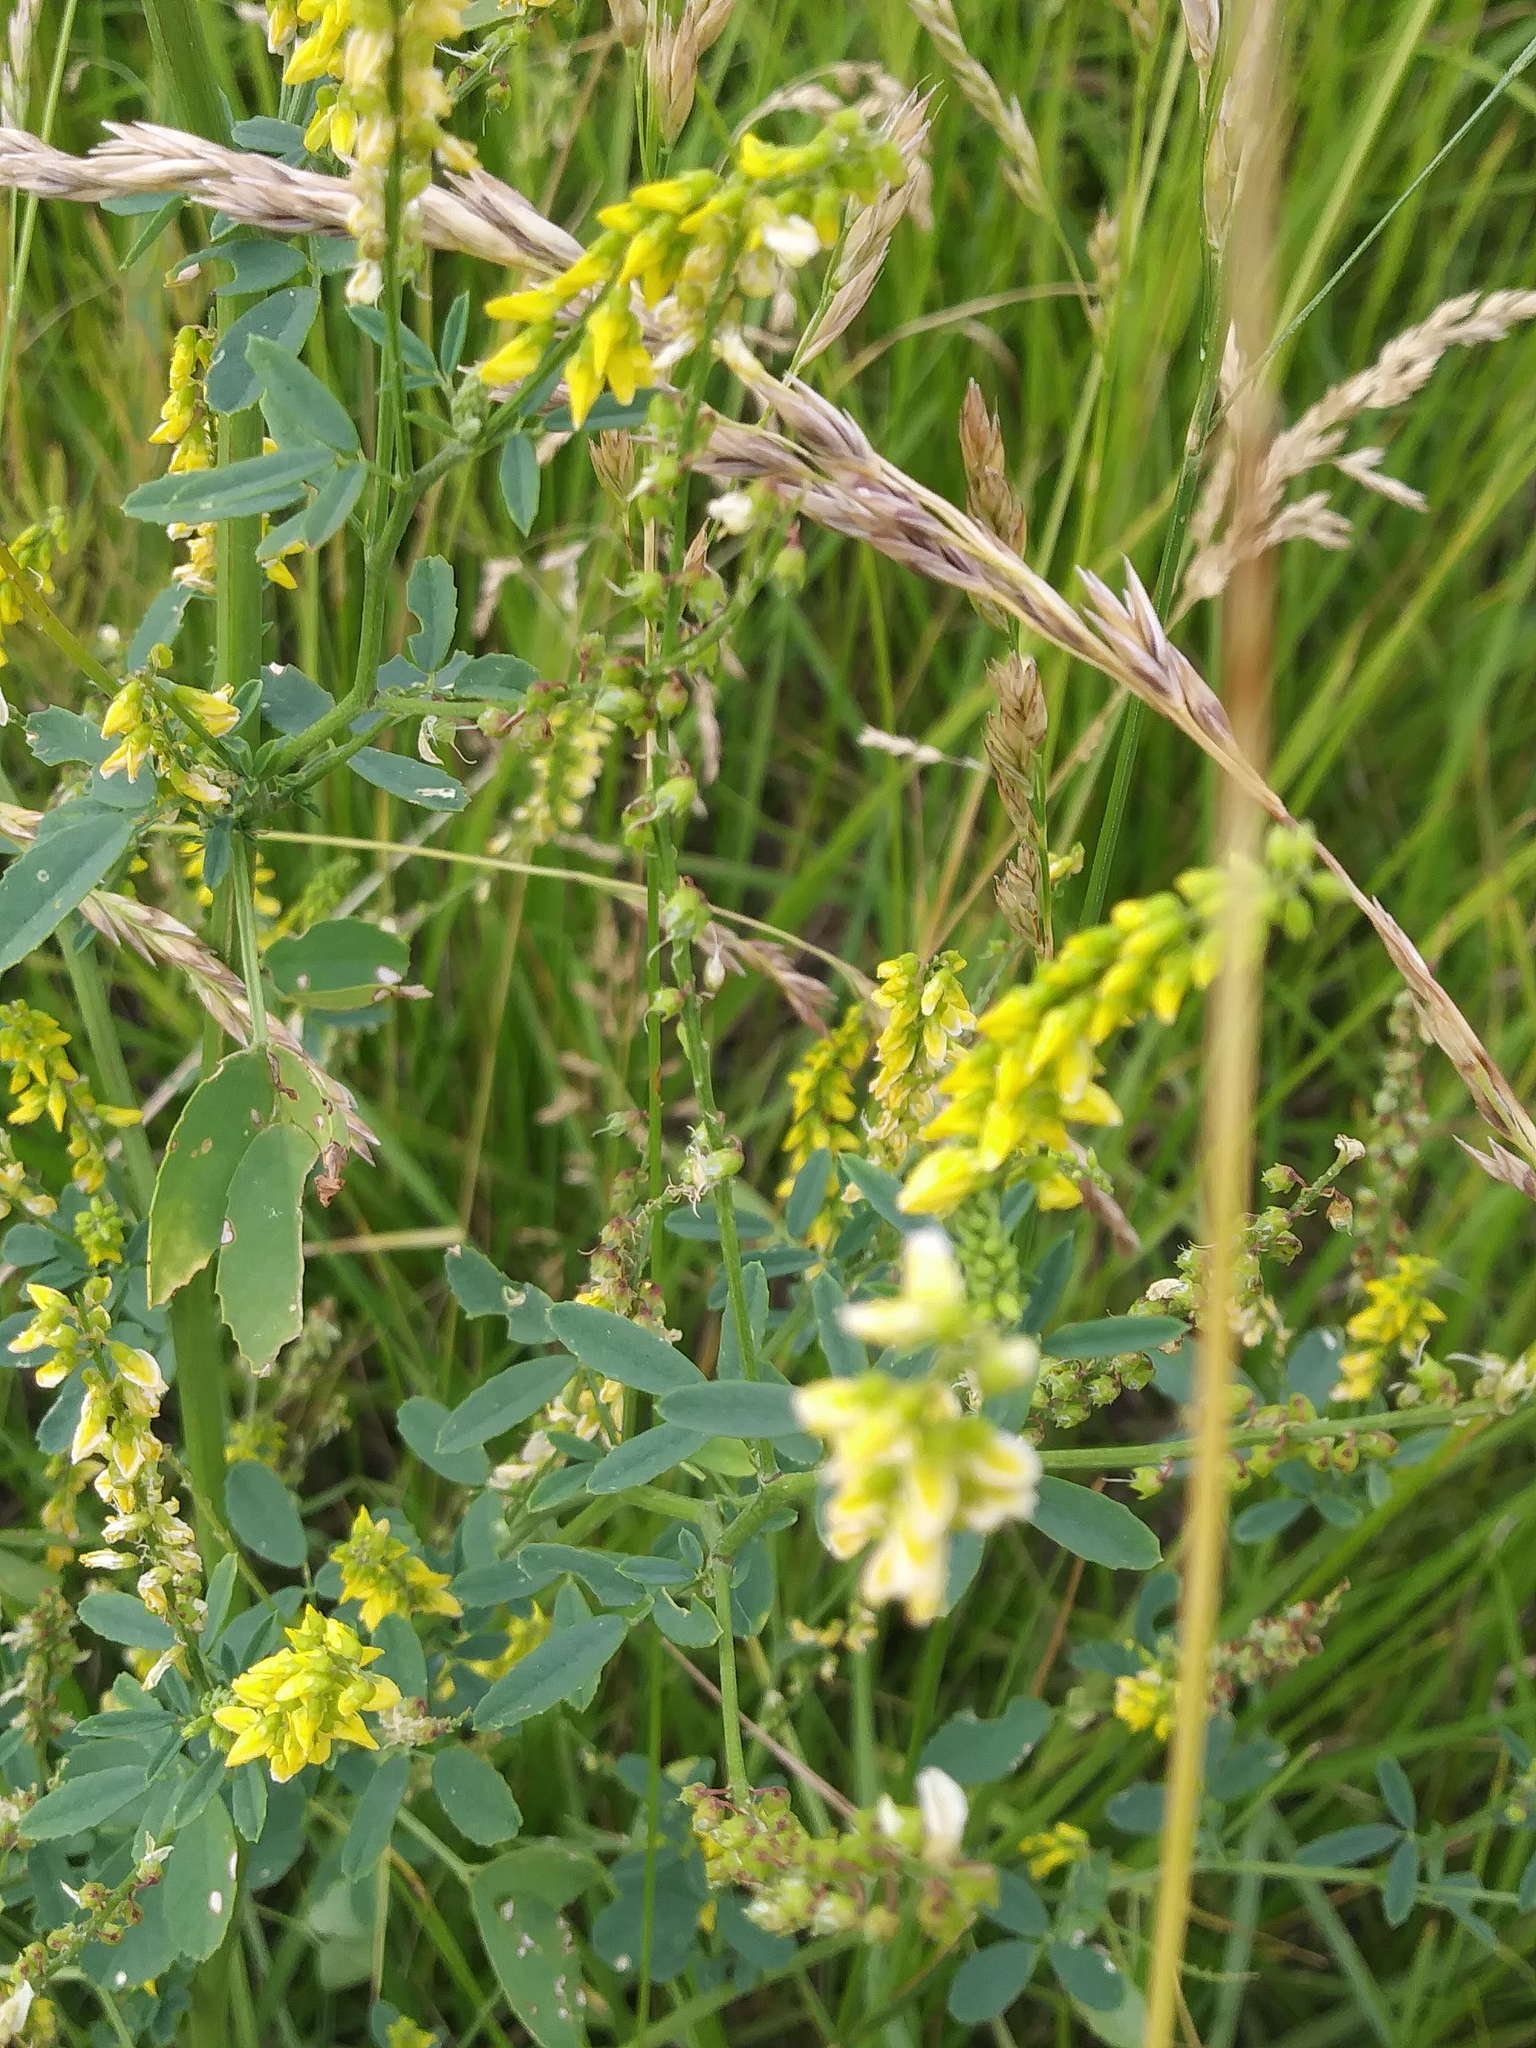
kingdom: Plantae
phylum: Tracheophyta
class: Magnoliopsida
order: Fabales
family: Fabaceae
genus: Melilotus
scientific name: Melilotus officinalis
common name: Sweetclover
